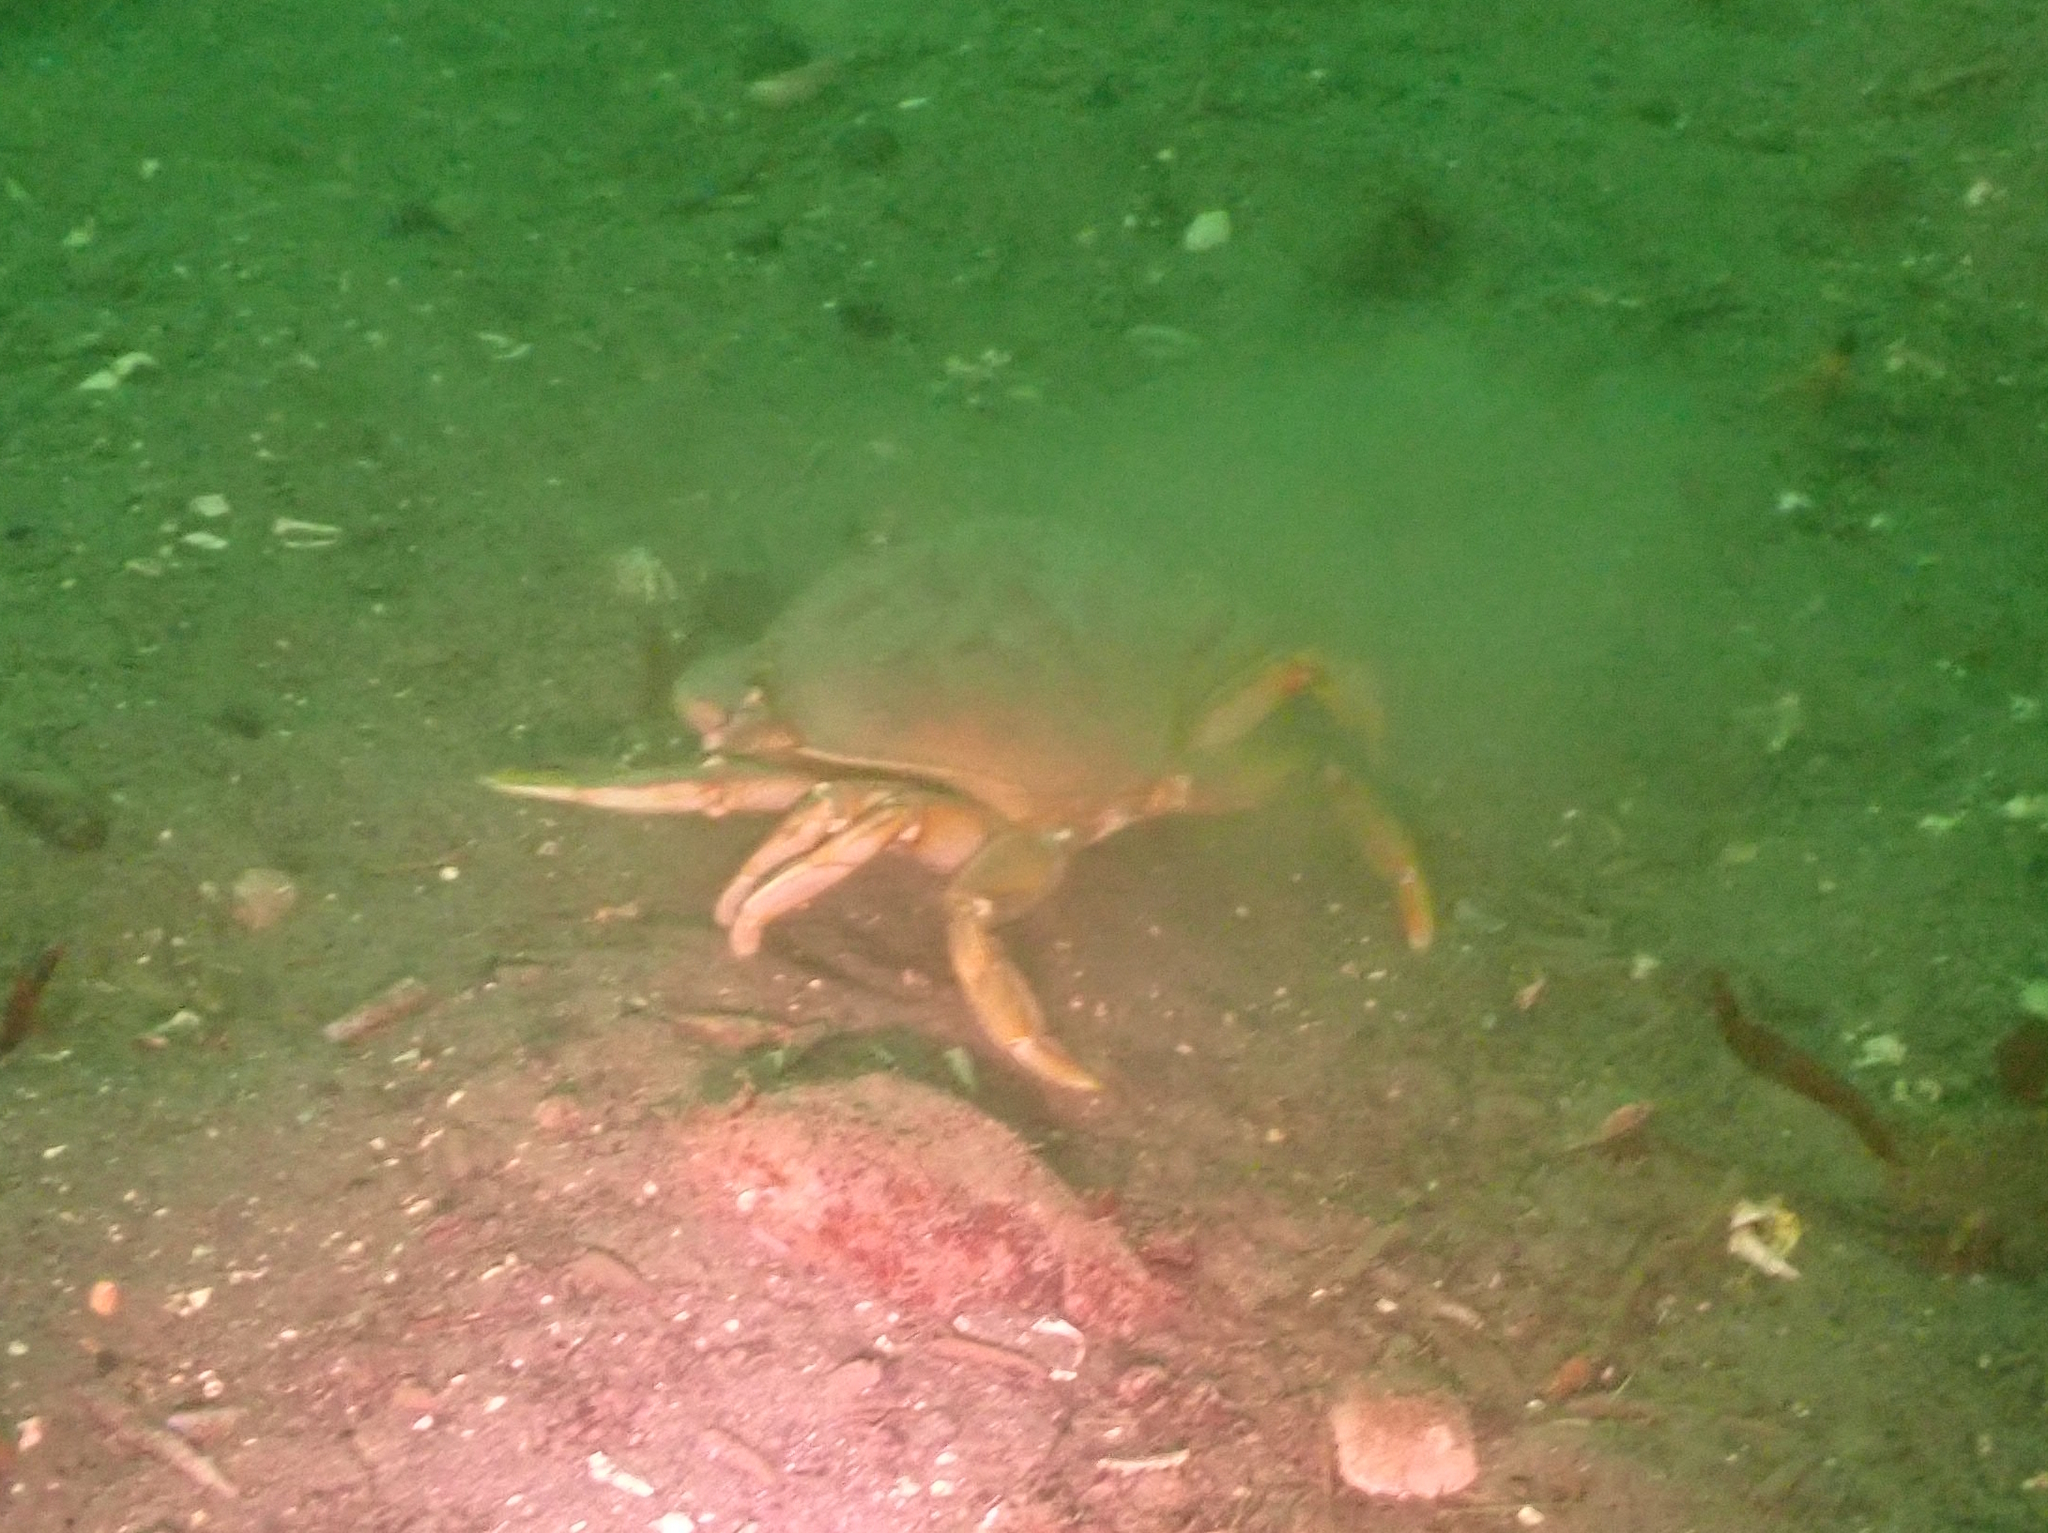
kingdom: Animalia
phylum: Arthropoda
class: Malacostraca
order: Decapoda
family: Cancridae
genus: Metacarcinus
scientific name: Metacarcinus magister
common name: Californian crab
